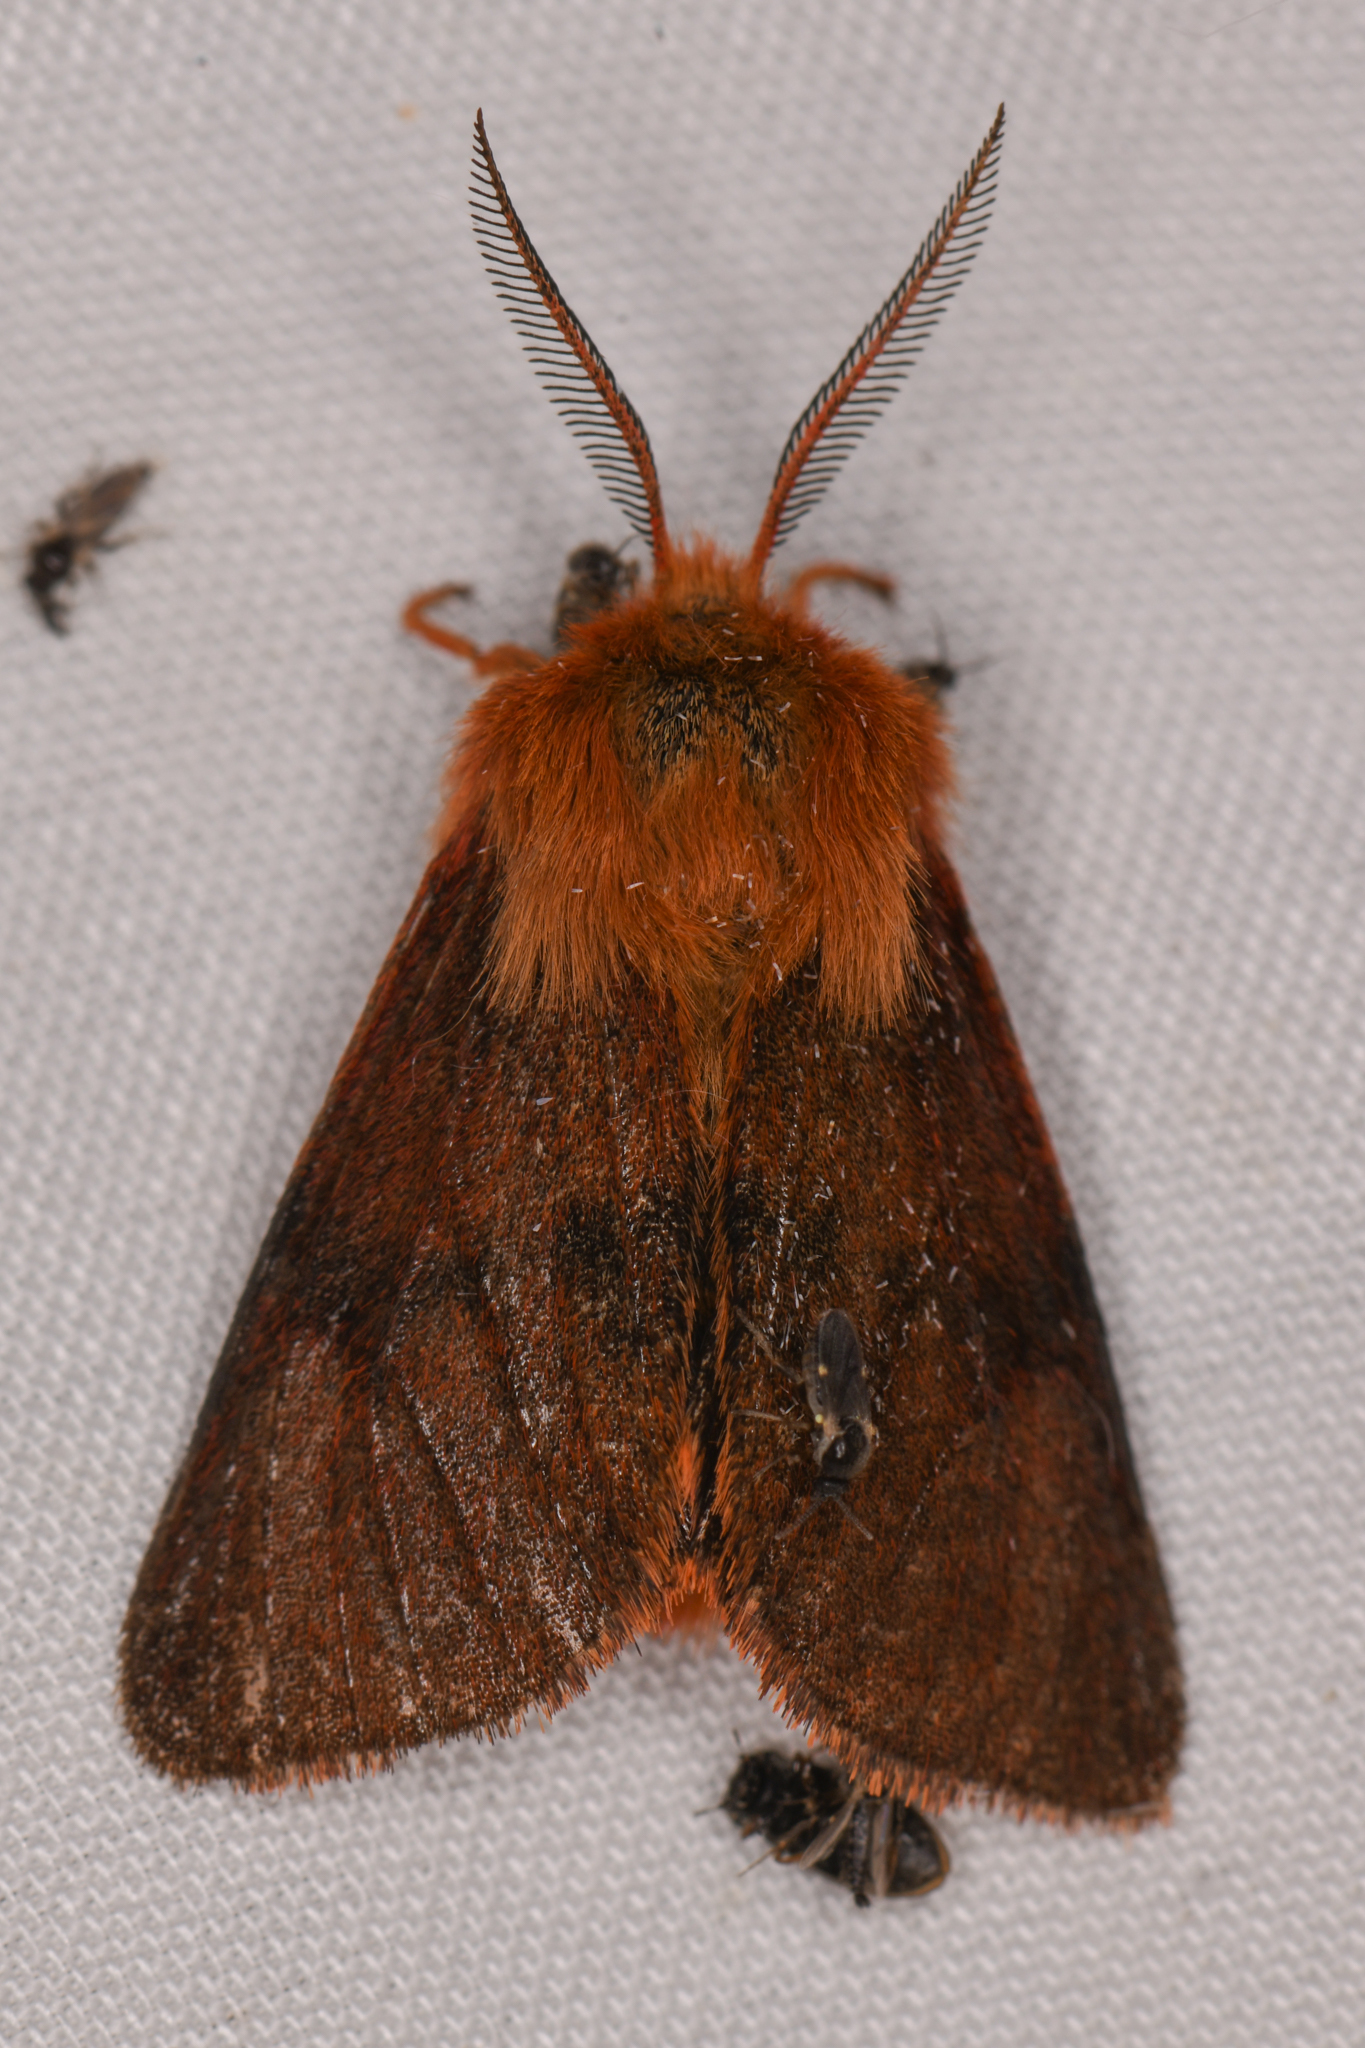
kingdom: Animalia
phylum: Arthropoda
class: Insecta
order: Lepidoptera
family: Erebidae
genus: Spilosoma
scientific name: Spilosoma pteridis
